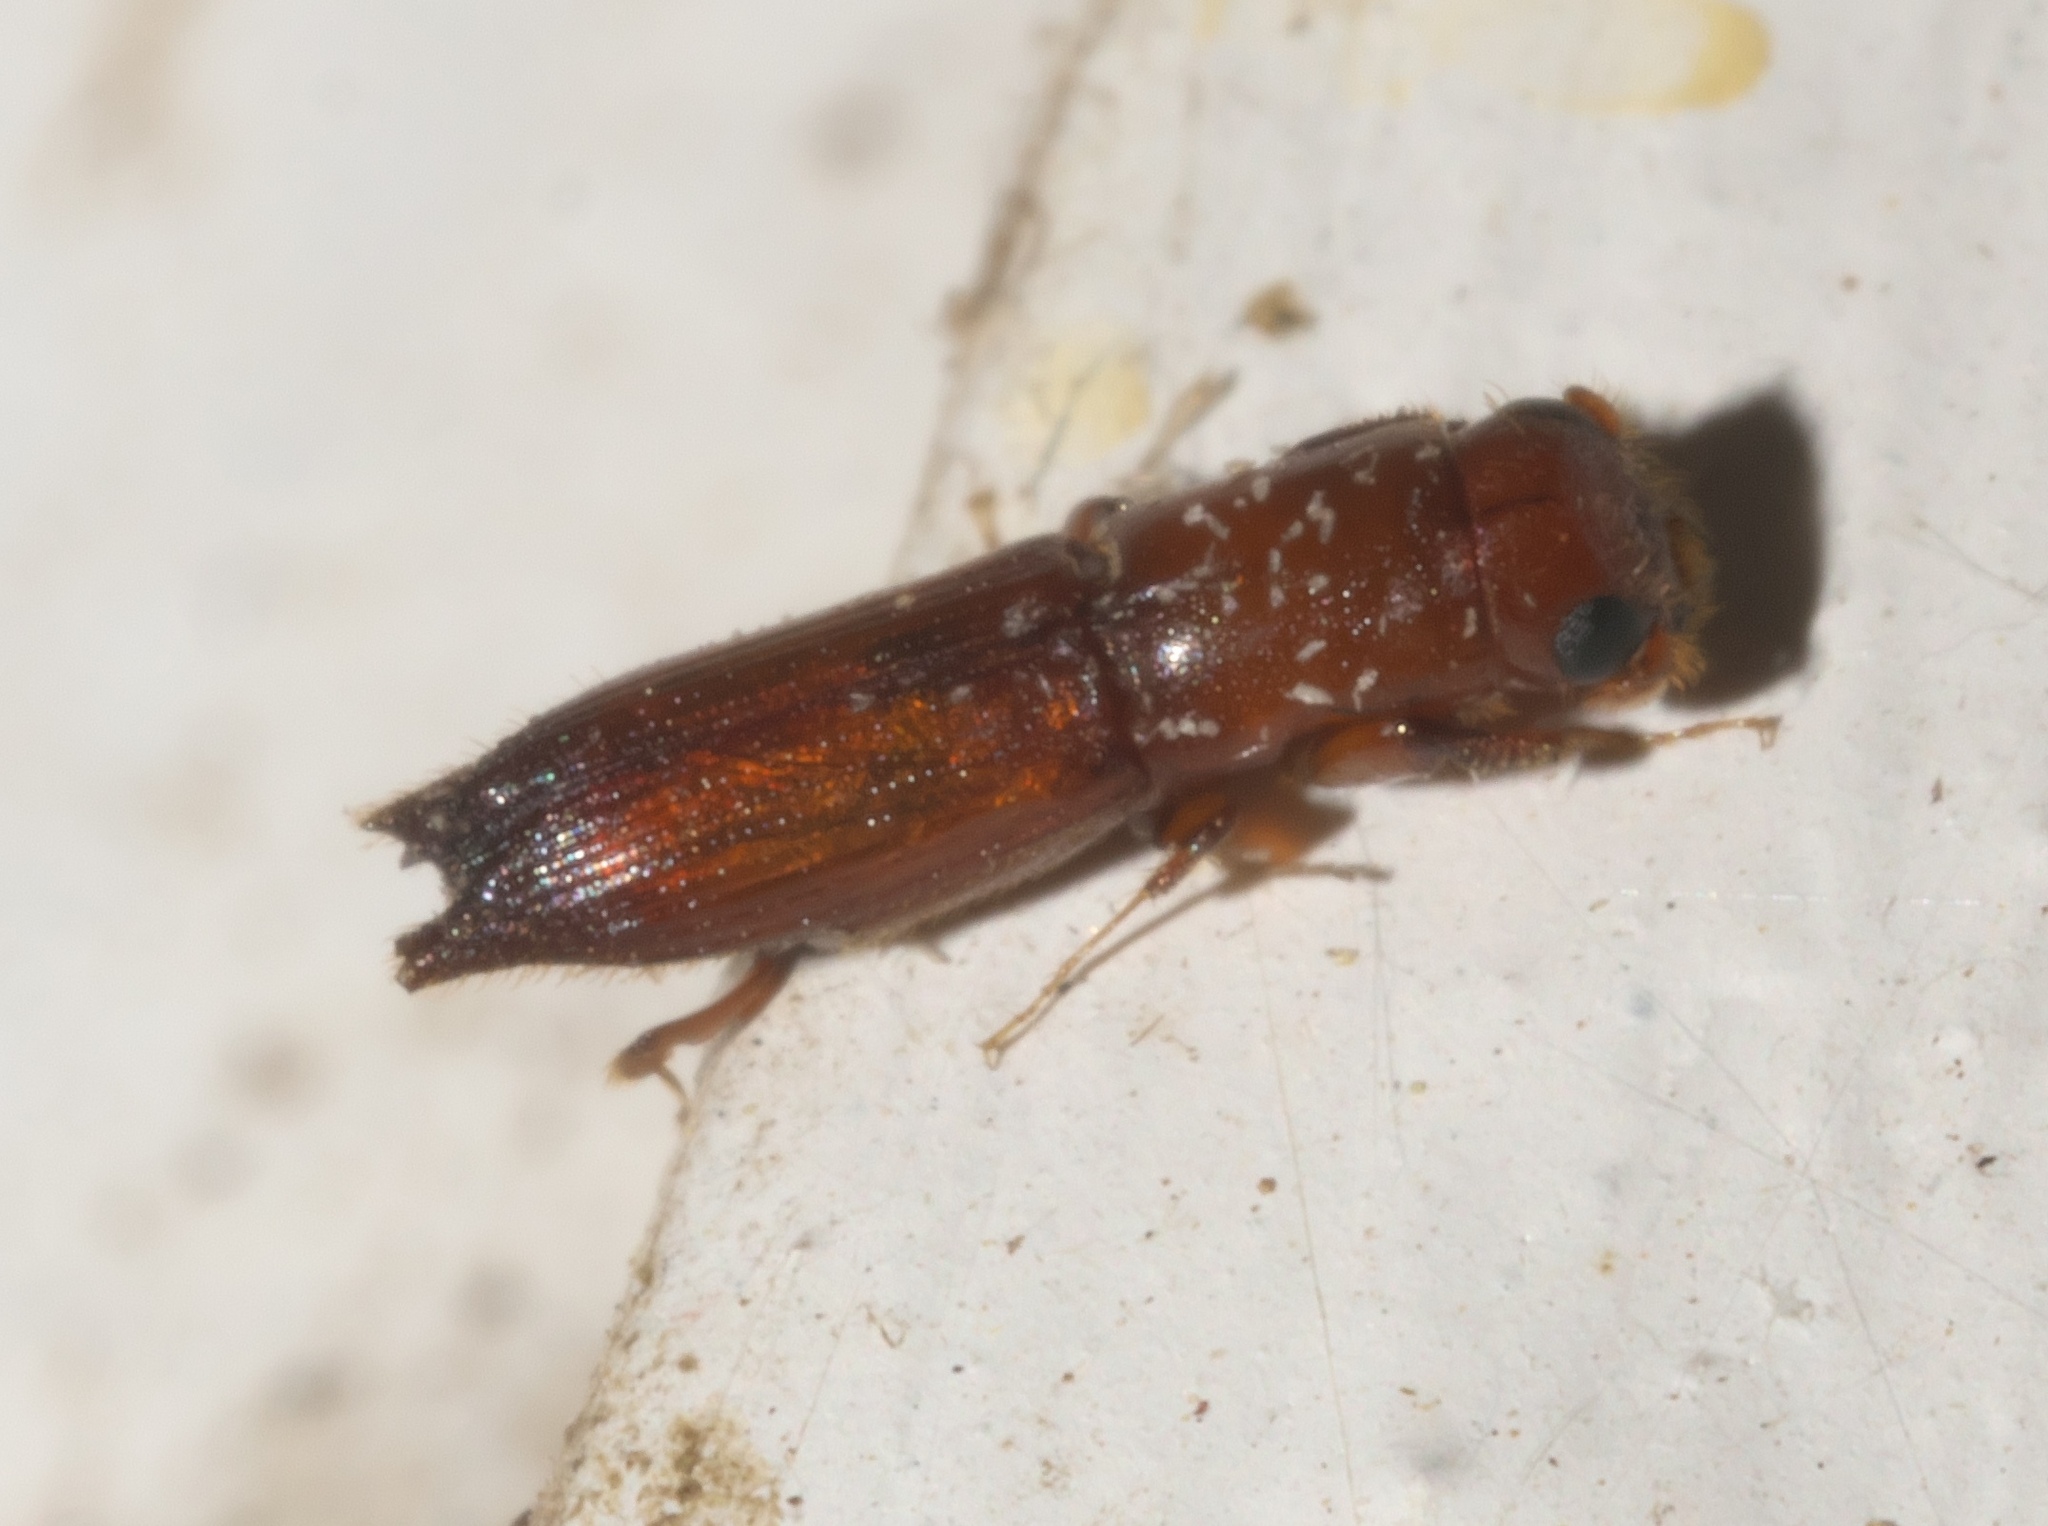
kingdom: Animalia
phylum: Arthropoda
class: Insecta
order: Coleoptera
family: Curculionidae
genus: Euplatypus
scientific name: Euplatypus compositus
